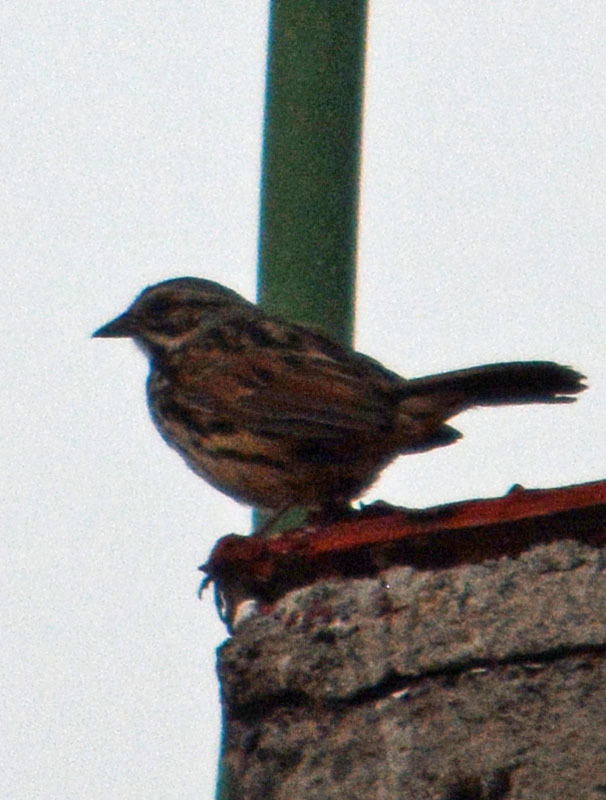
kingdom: Animalia
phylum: Chordata
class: Aves
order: Passeriformes
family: Passerellidae
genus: Melospiza
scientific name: Melospiza melodia
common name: Song sparrow
